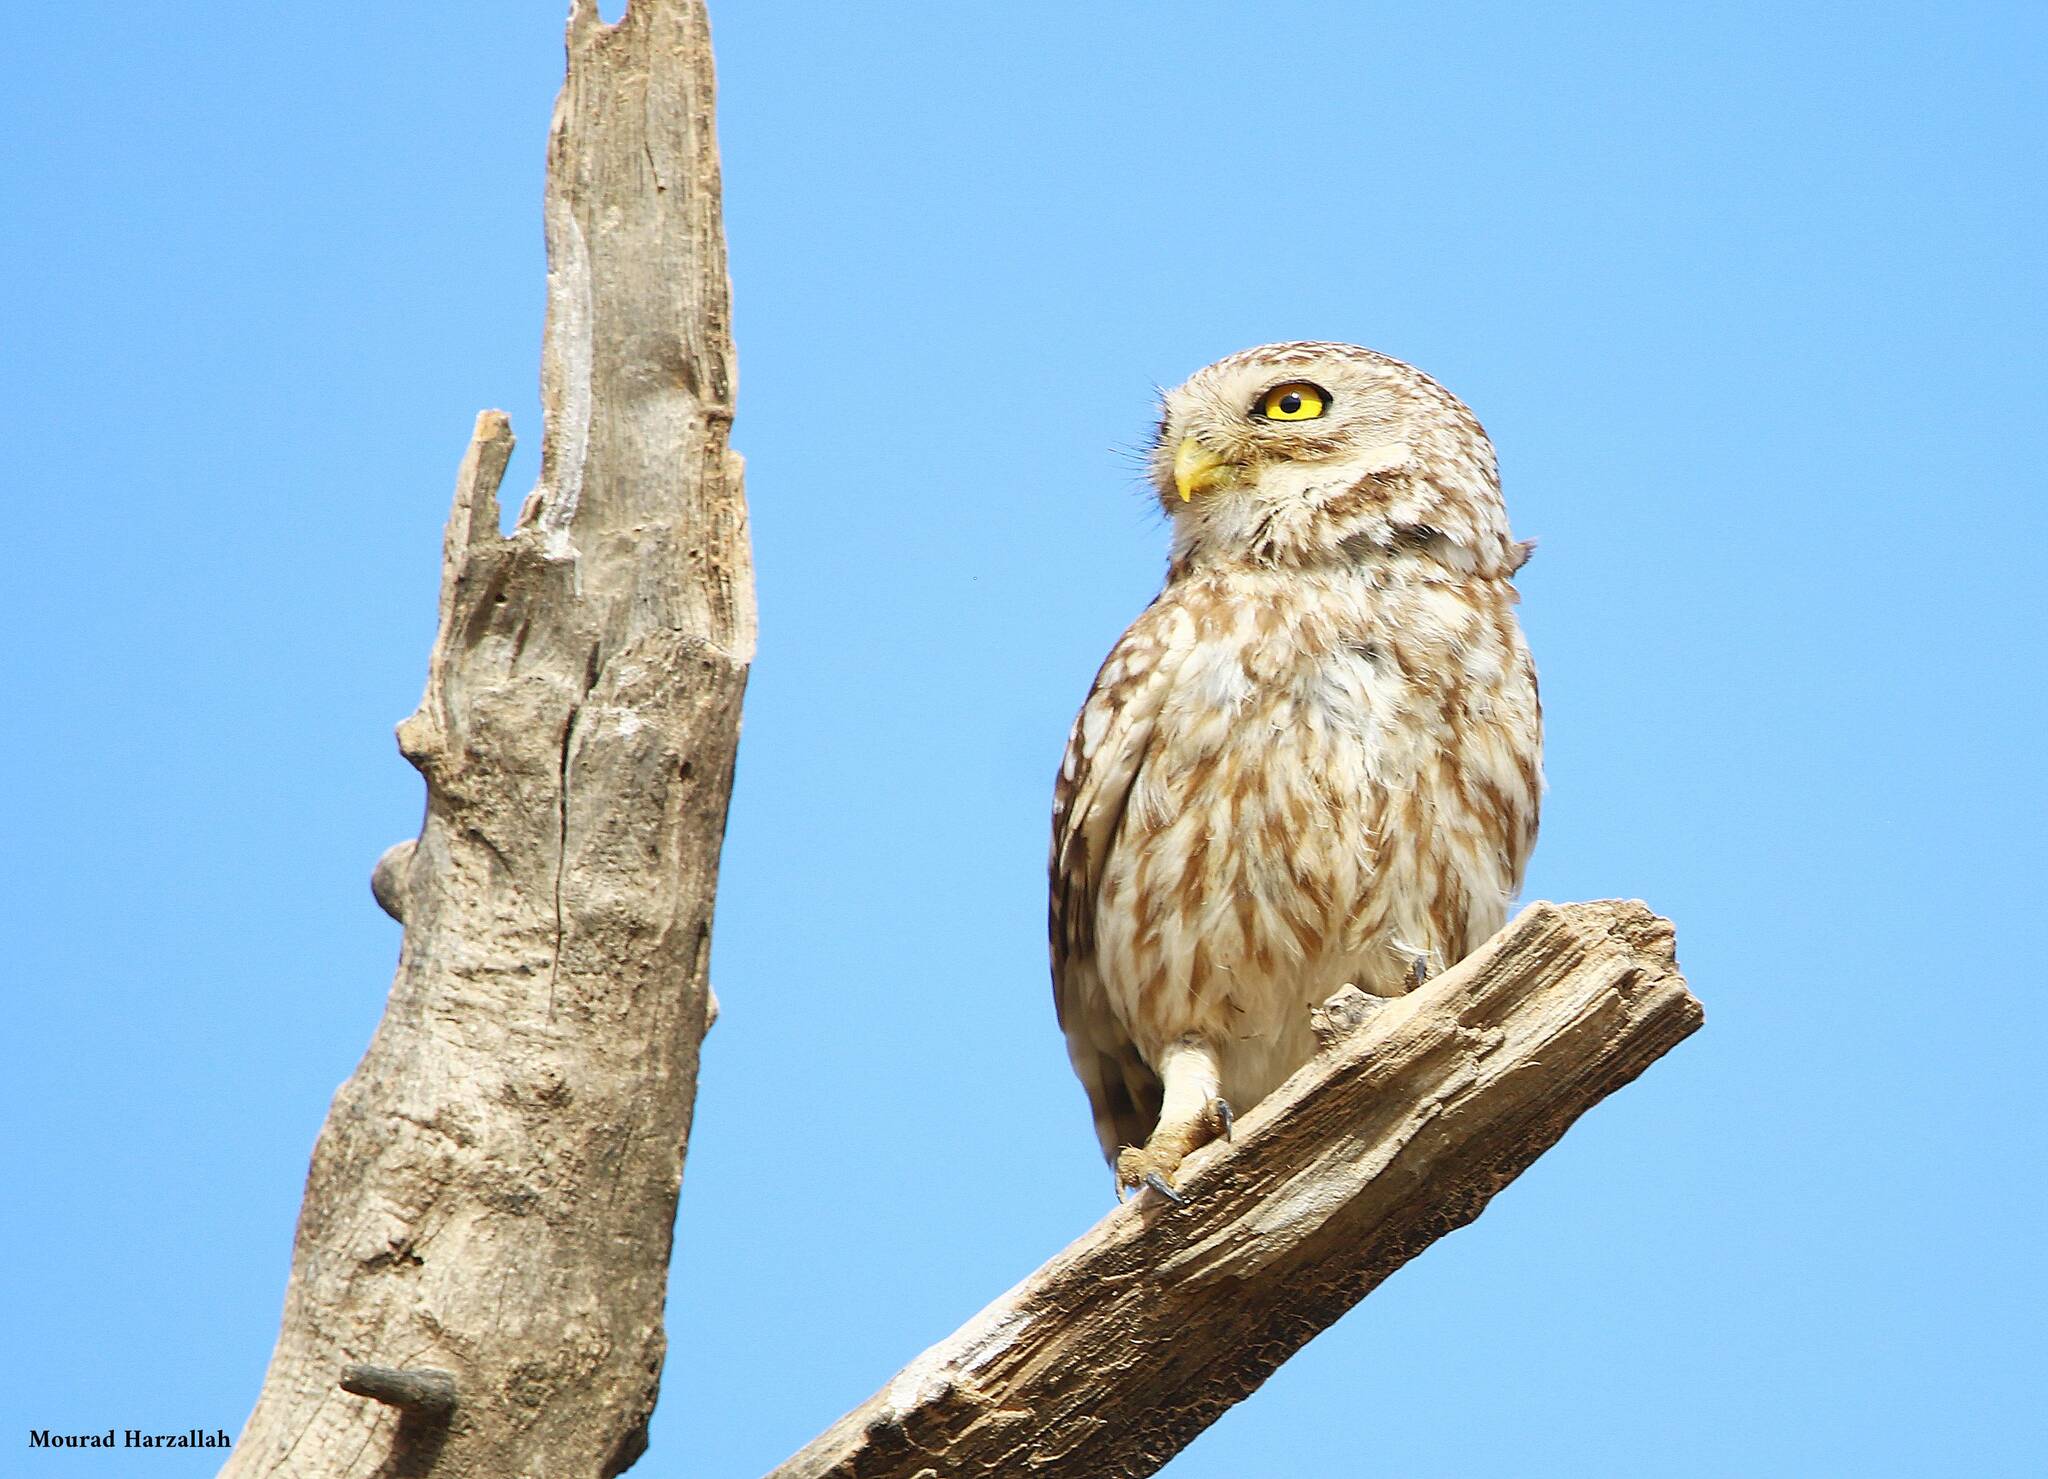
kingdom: Animalia
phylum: Chordata
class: Aves
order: Strigiformes
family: Strigidae
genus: Athene
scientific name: Athene noctua
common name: Little owl
